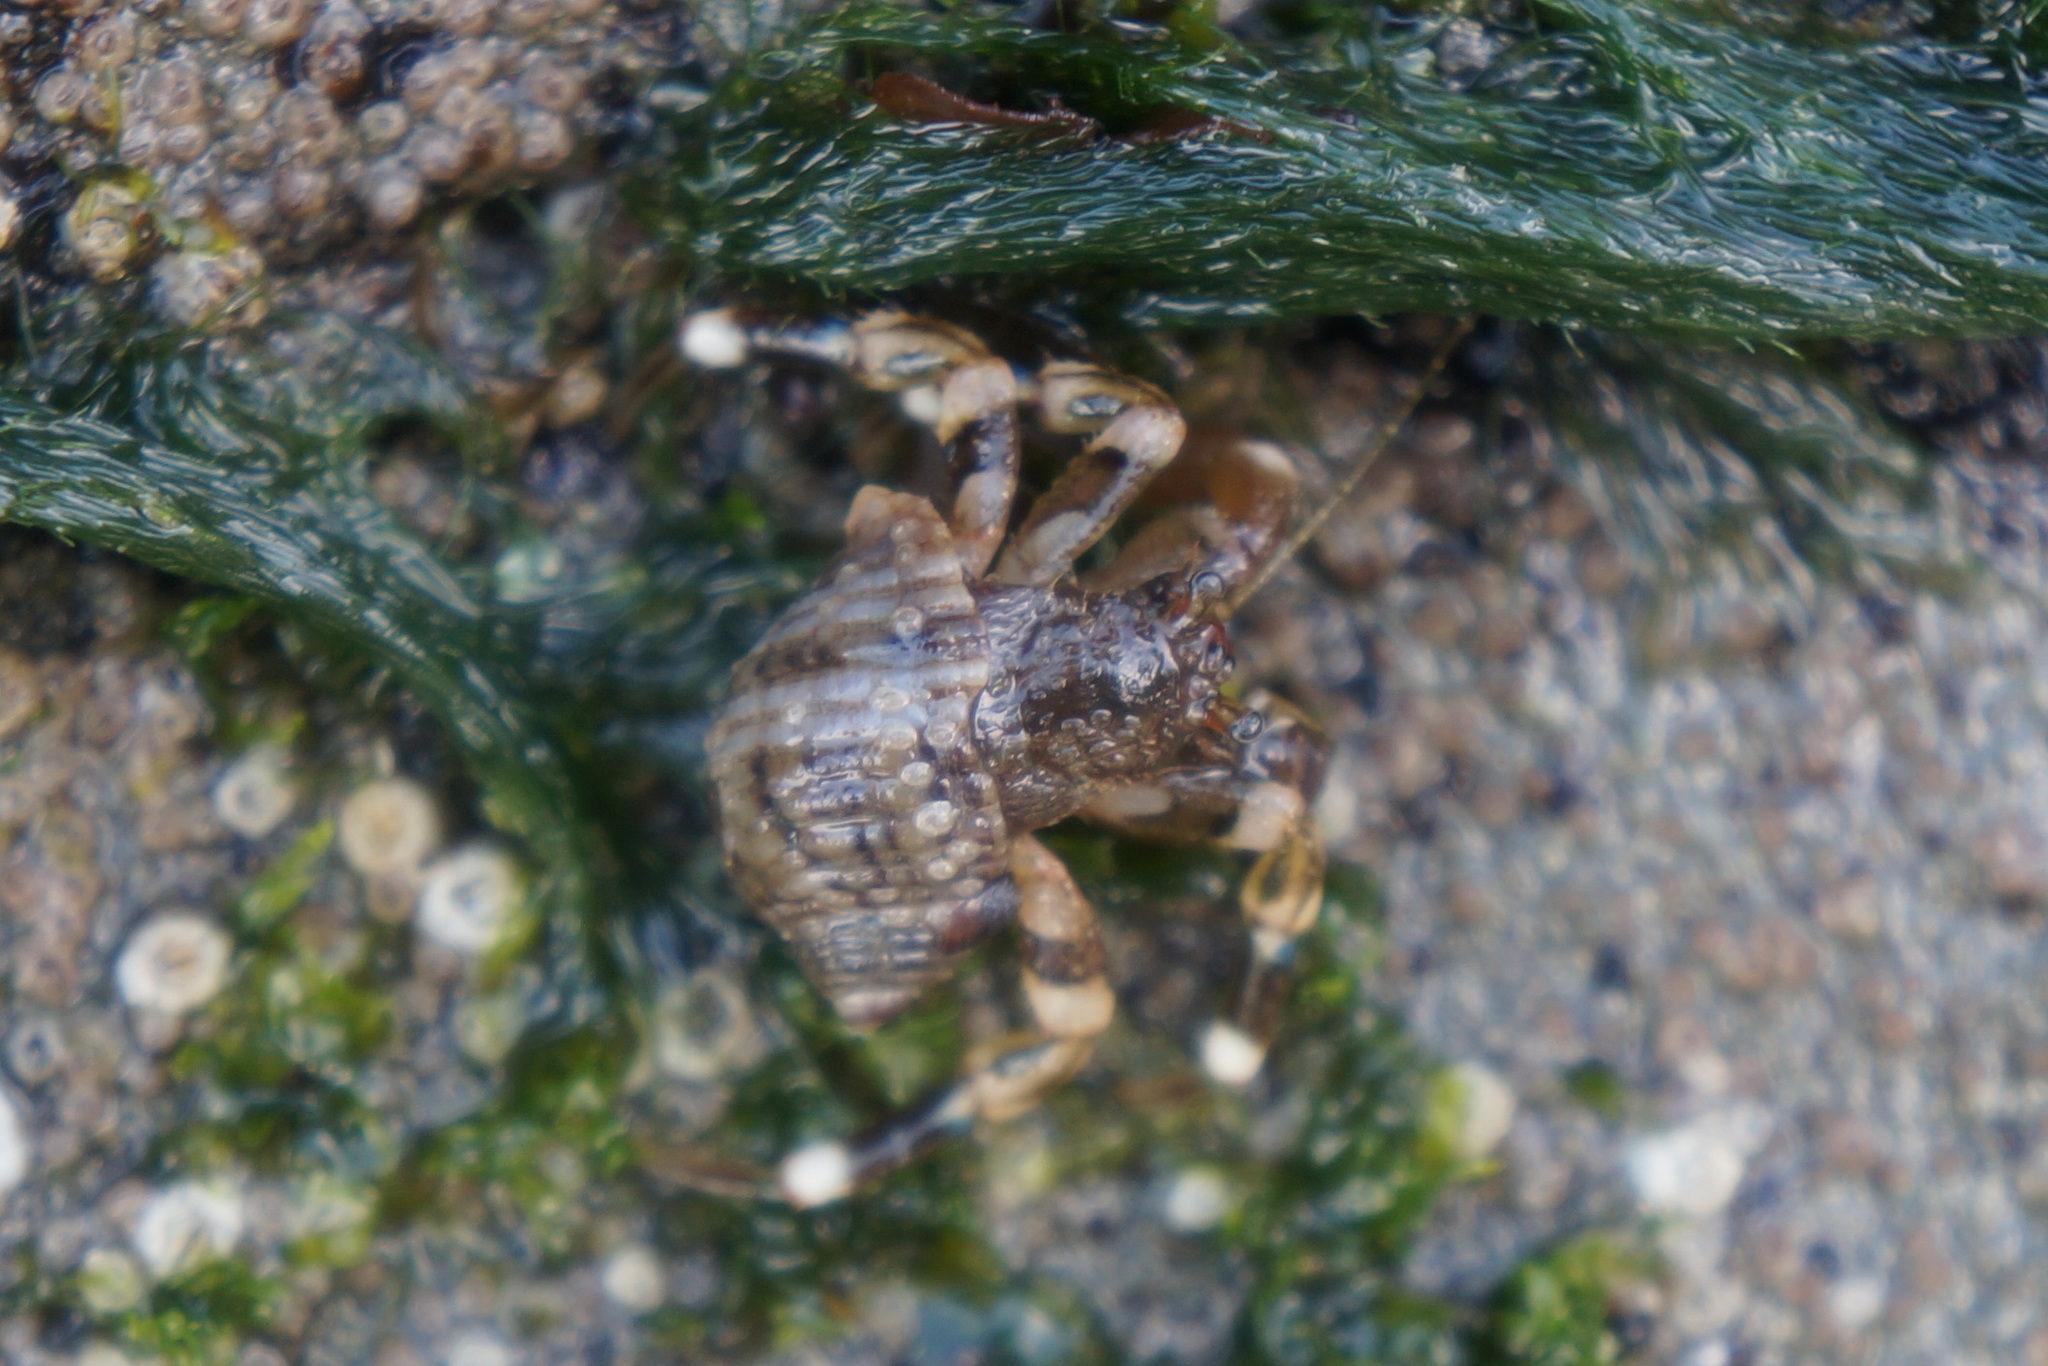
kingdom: Animalia
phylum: Arthropoda
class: Malacostraca
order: Decapoda
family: Paguridae
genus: Pagurus
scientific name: Pagurus hirsutiusculus
